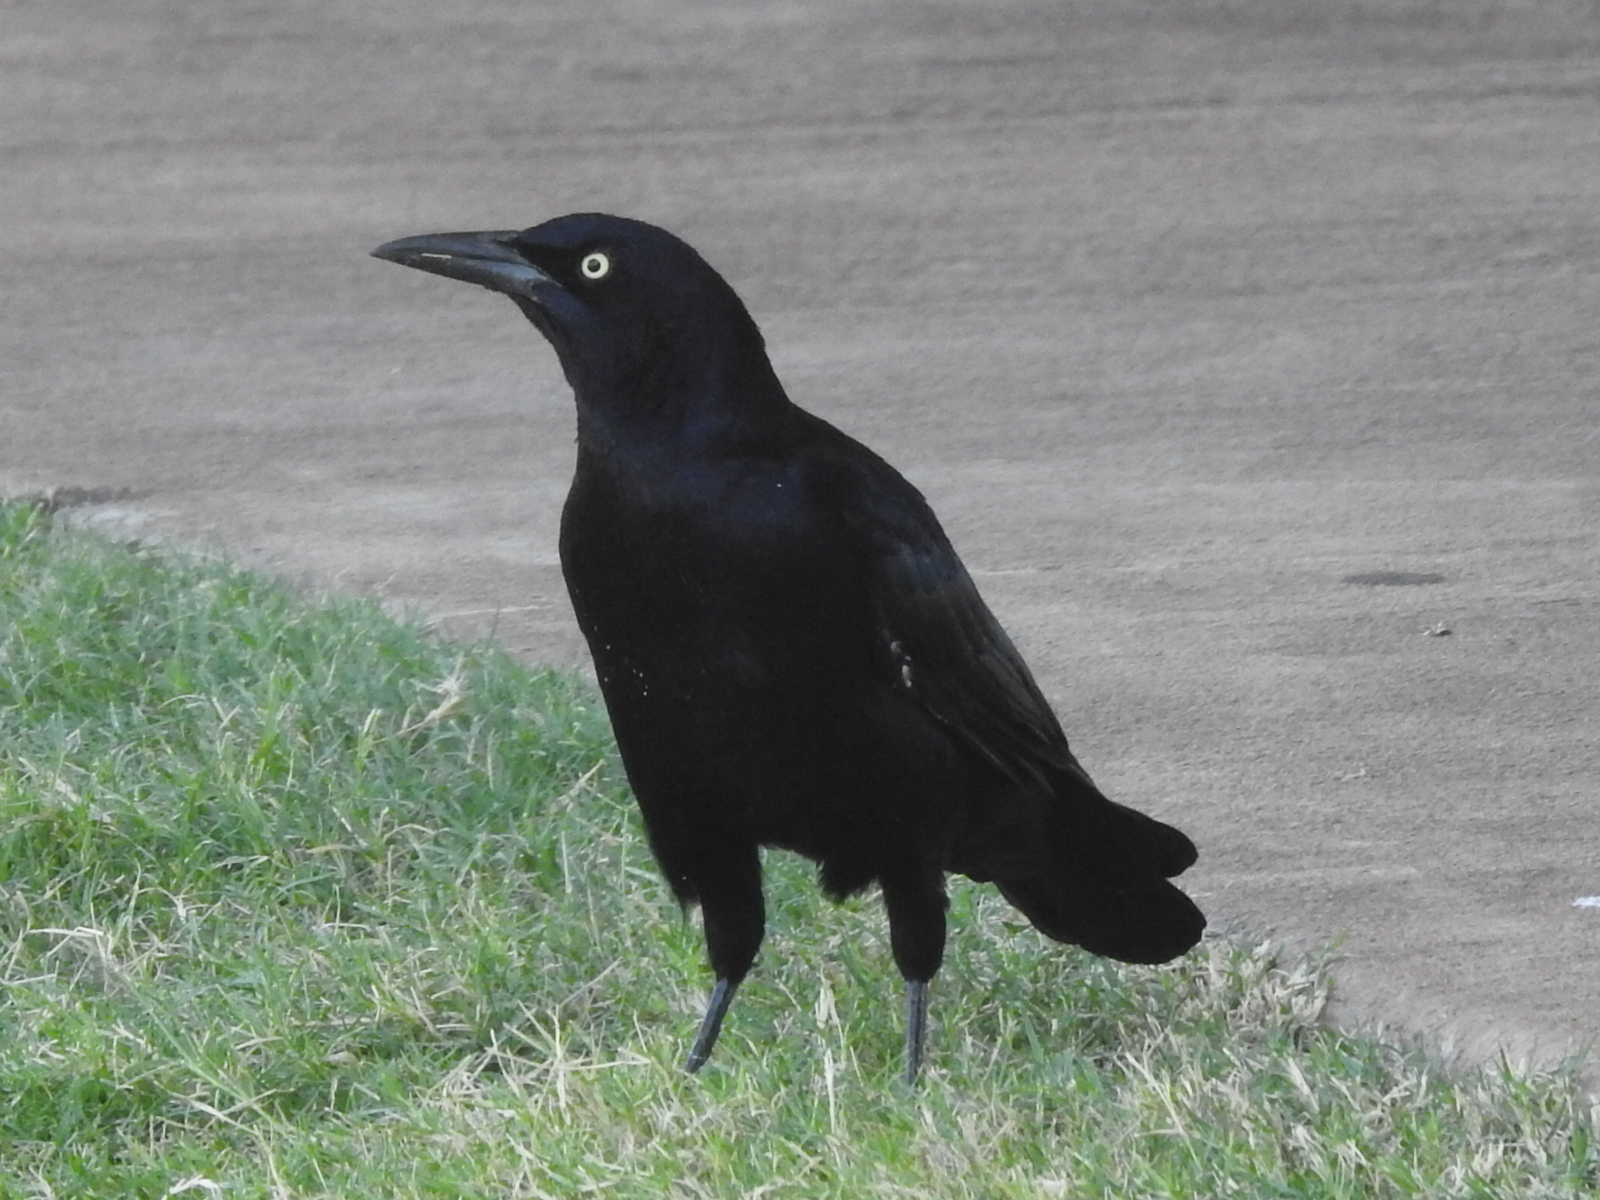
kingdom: Animalia
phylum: Chordata
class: Aves
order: Passeriformes
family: Icteridae
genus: Quiscalus
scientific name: Quiscalus mexicanus
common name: Great-tailed grackle
